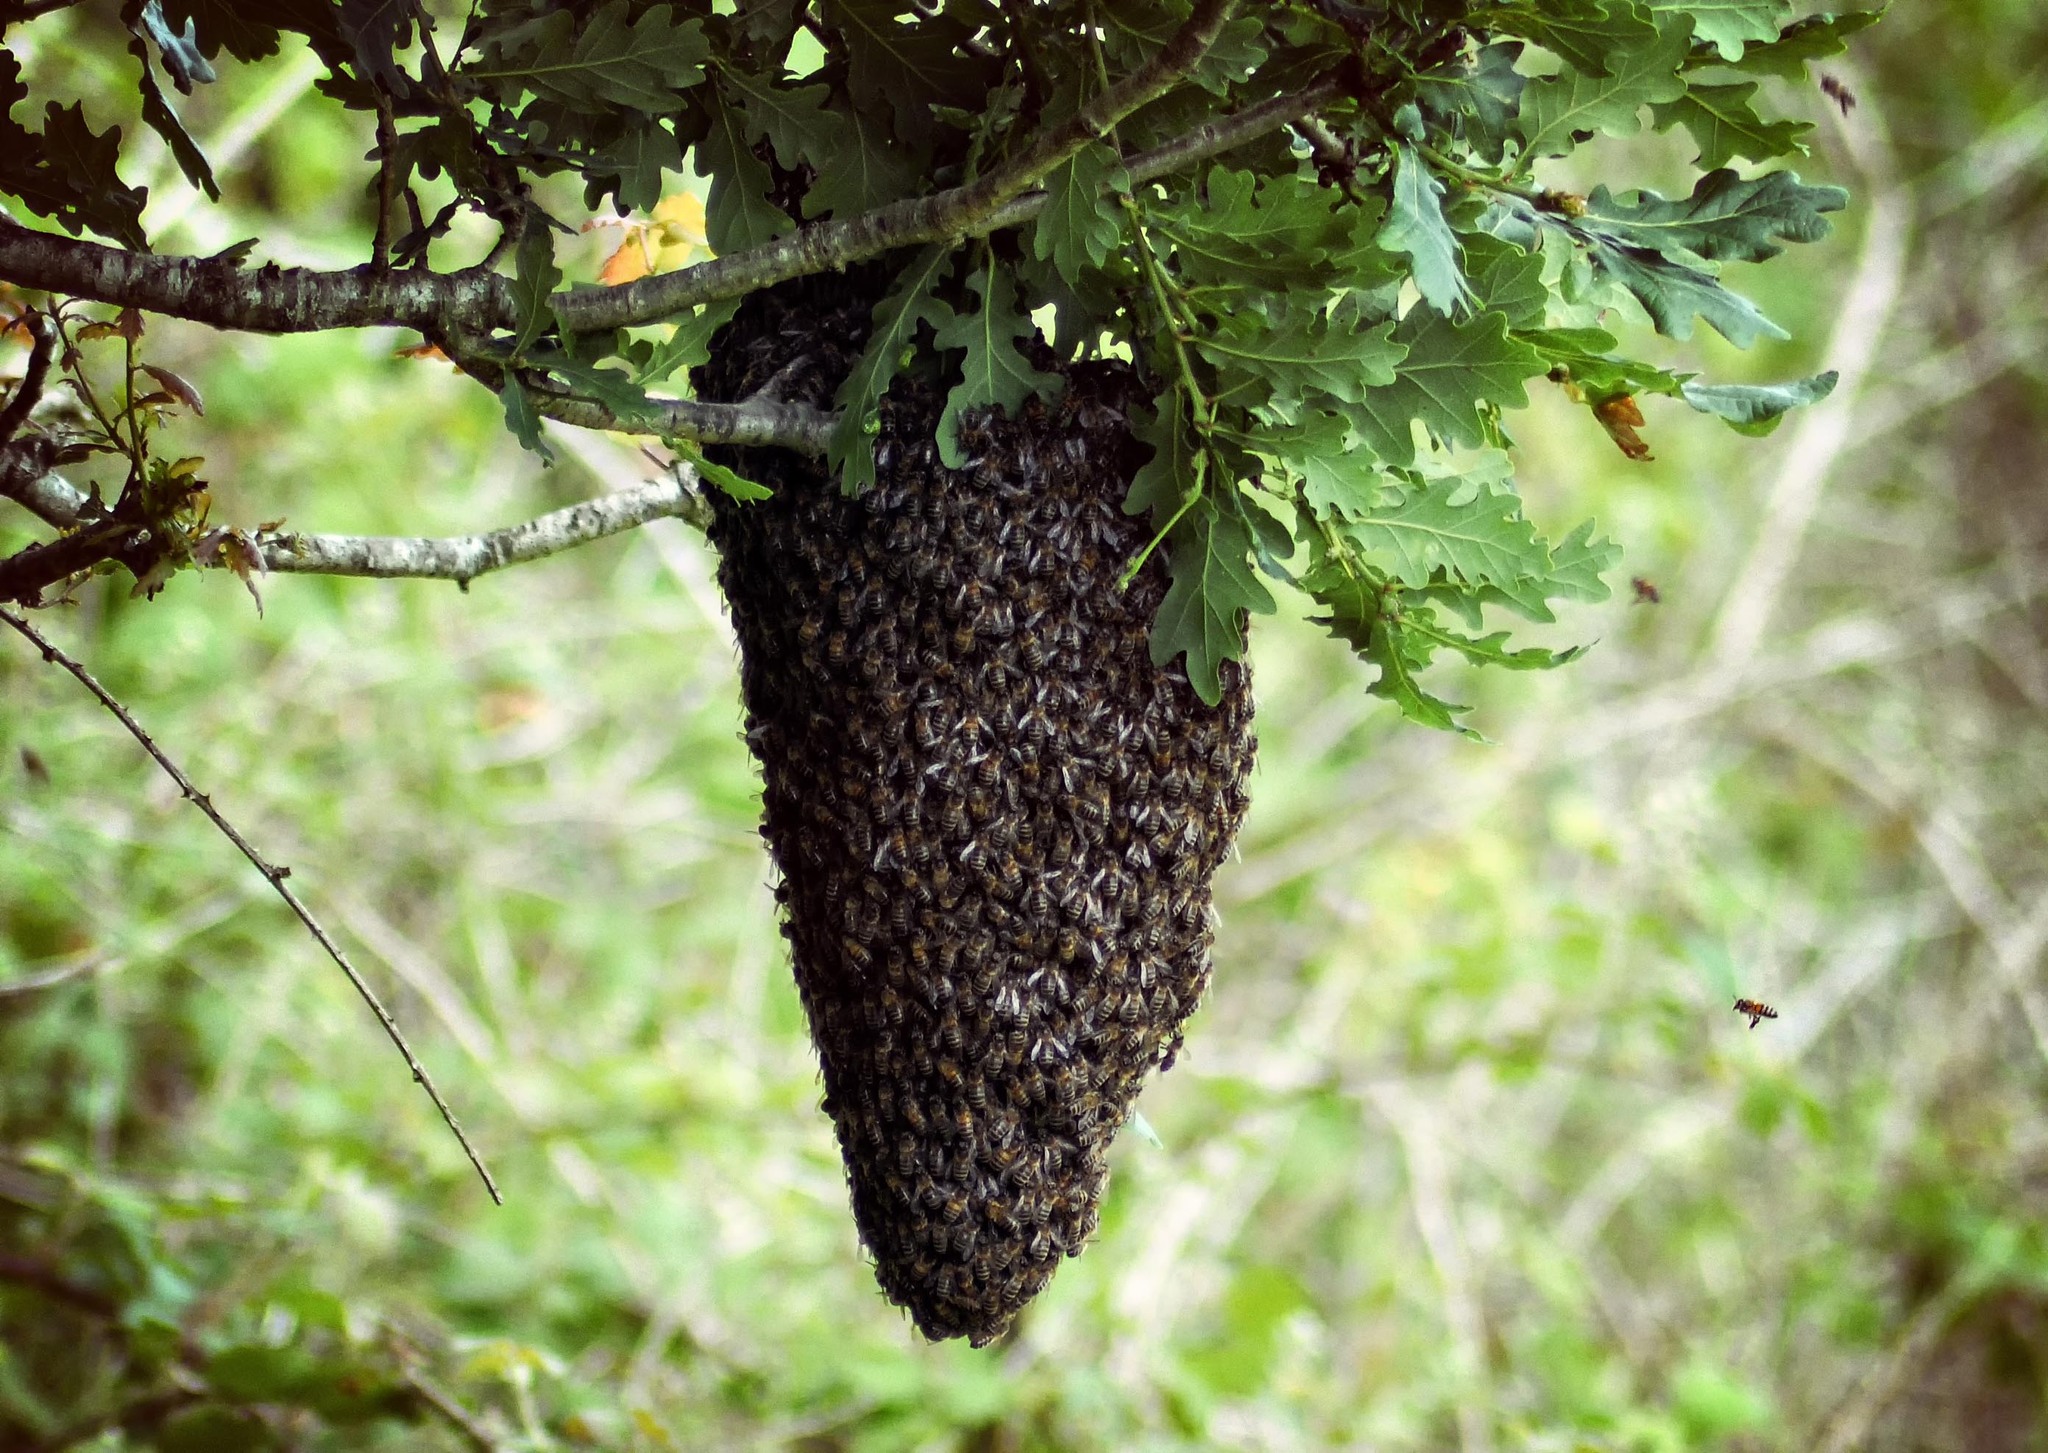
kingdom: Animalia
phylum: Arthropoda
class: Insecta
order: Hymenoptera
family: Apidae
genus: Apis
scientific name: Apis mellifera
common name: Honey bee
